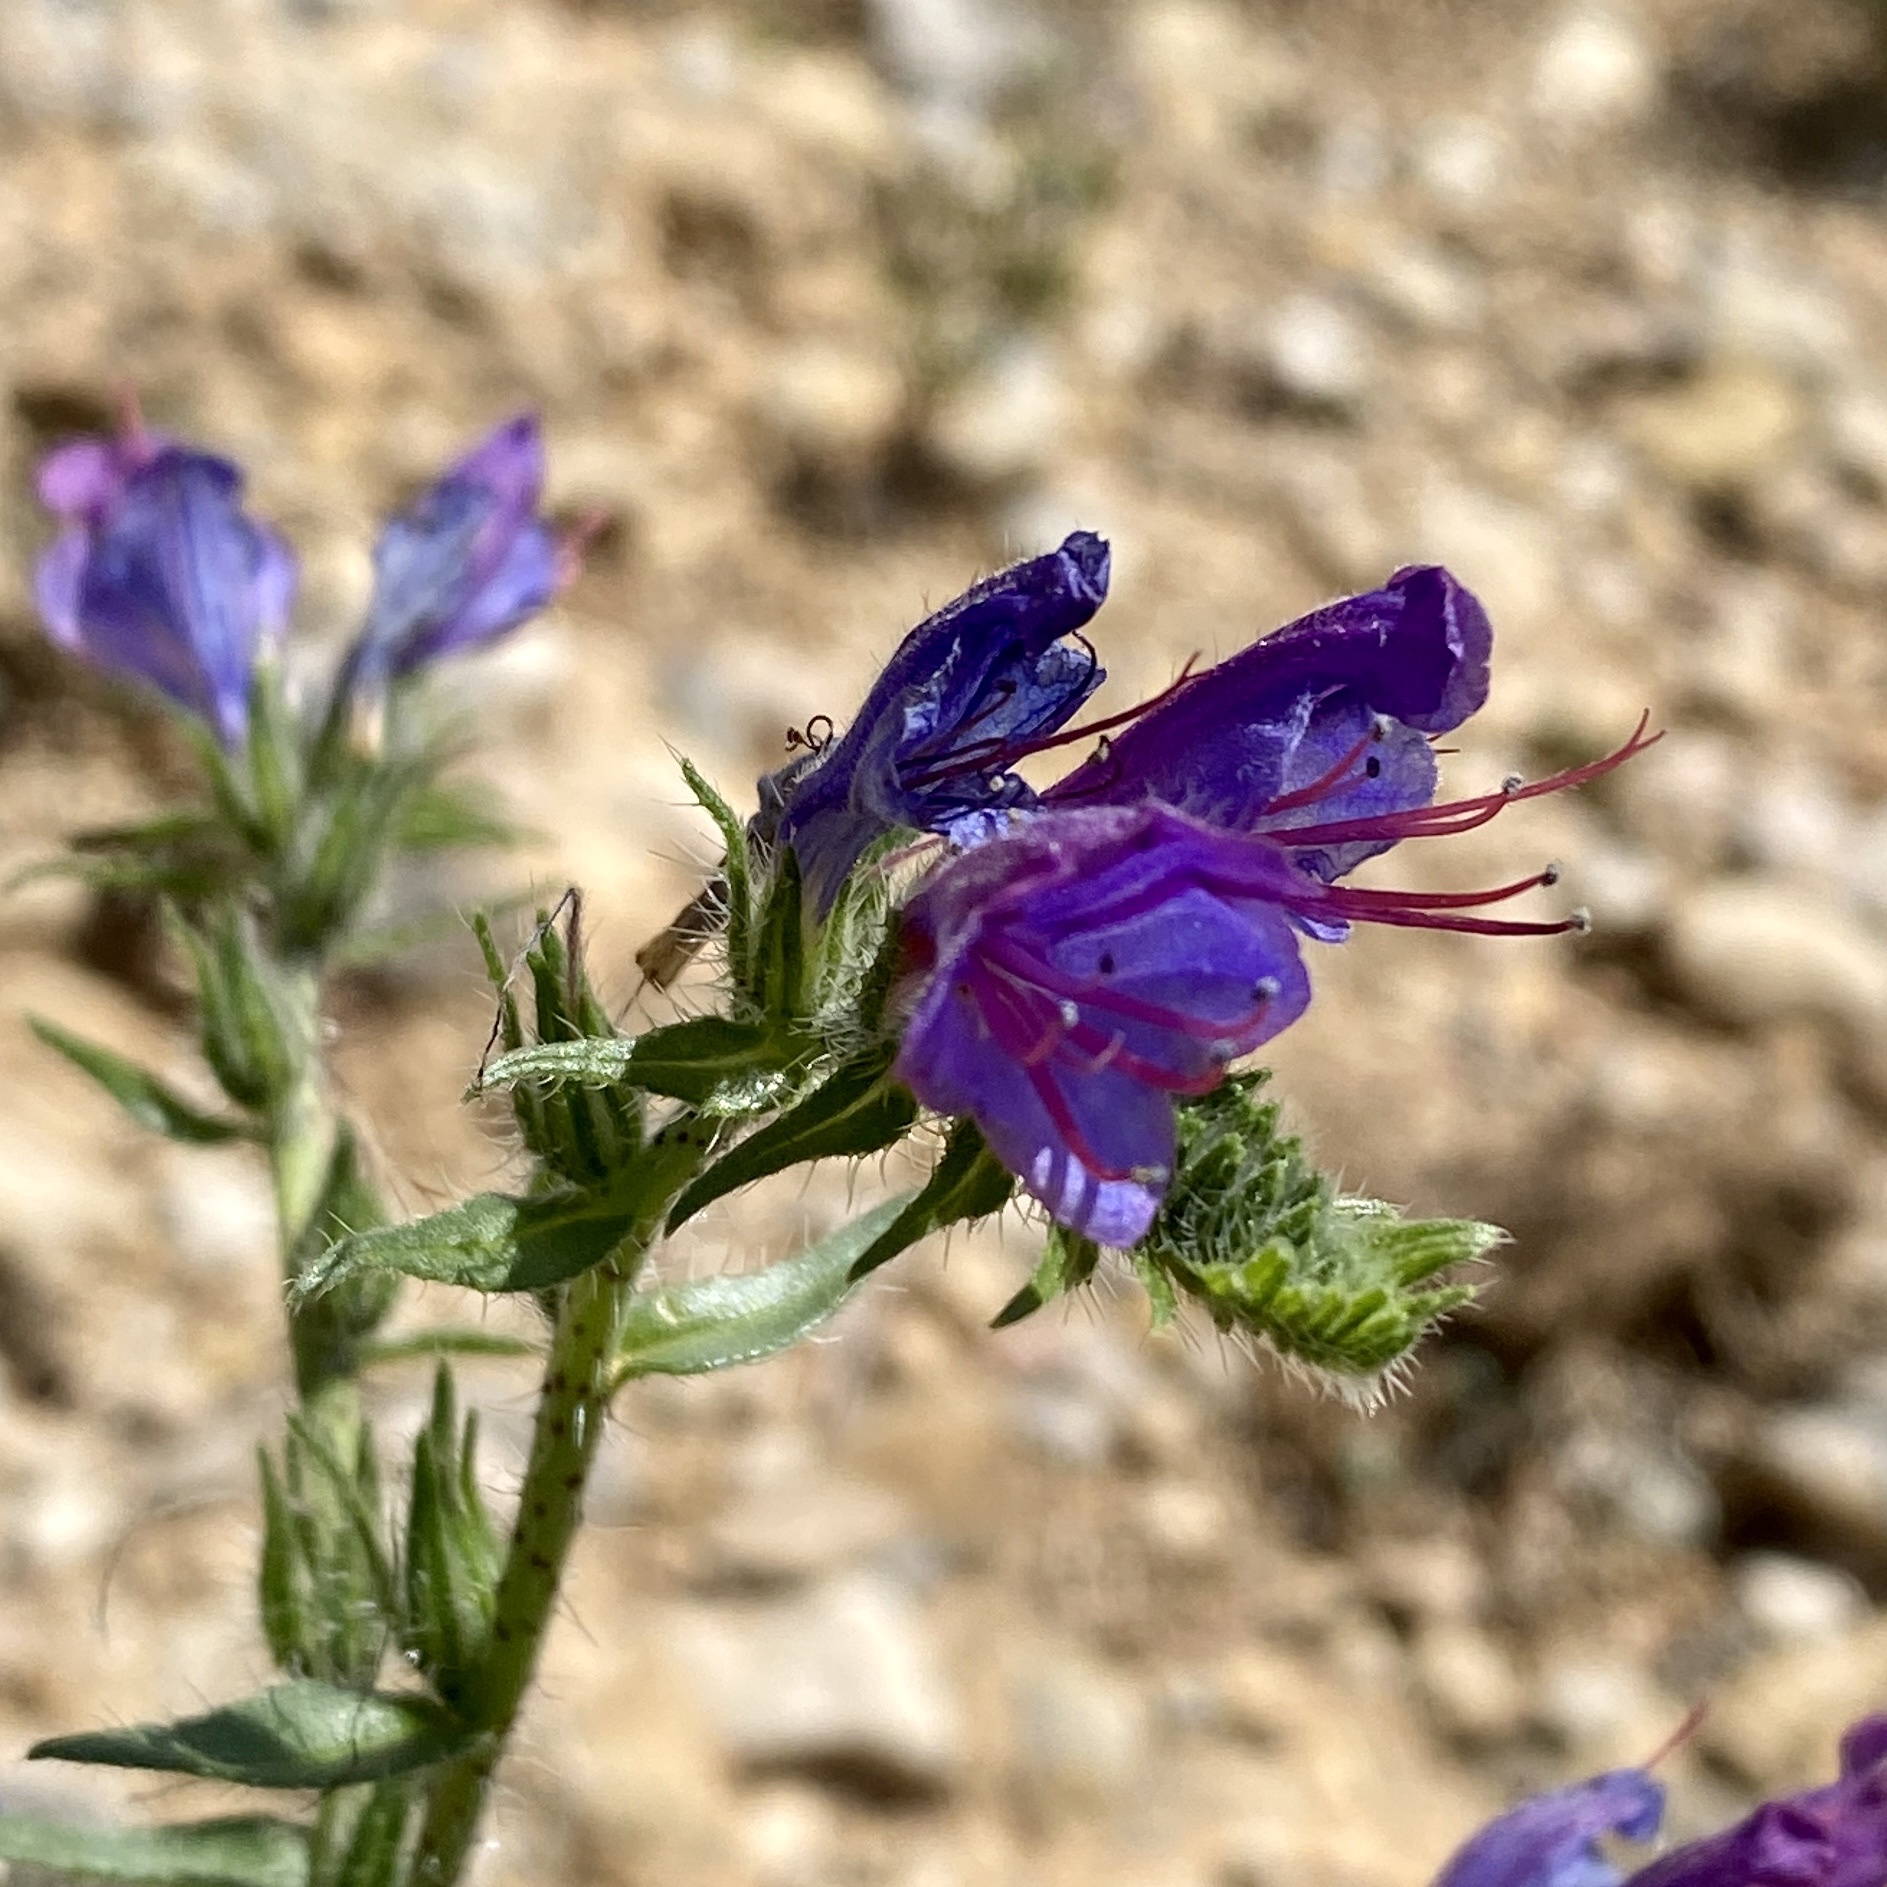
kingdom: Plantae
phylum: Tracheophyta
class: Magnoliopsida
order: Boraginales
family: Boraginaceae
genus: Echium
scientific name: Echium vulgare
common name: Common viper's bugloss
